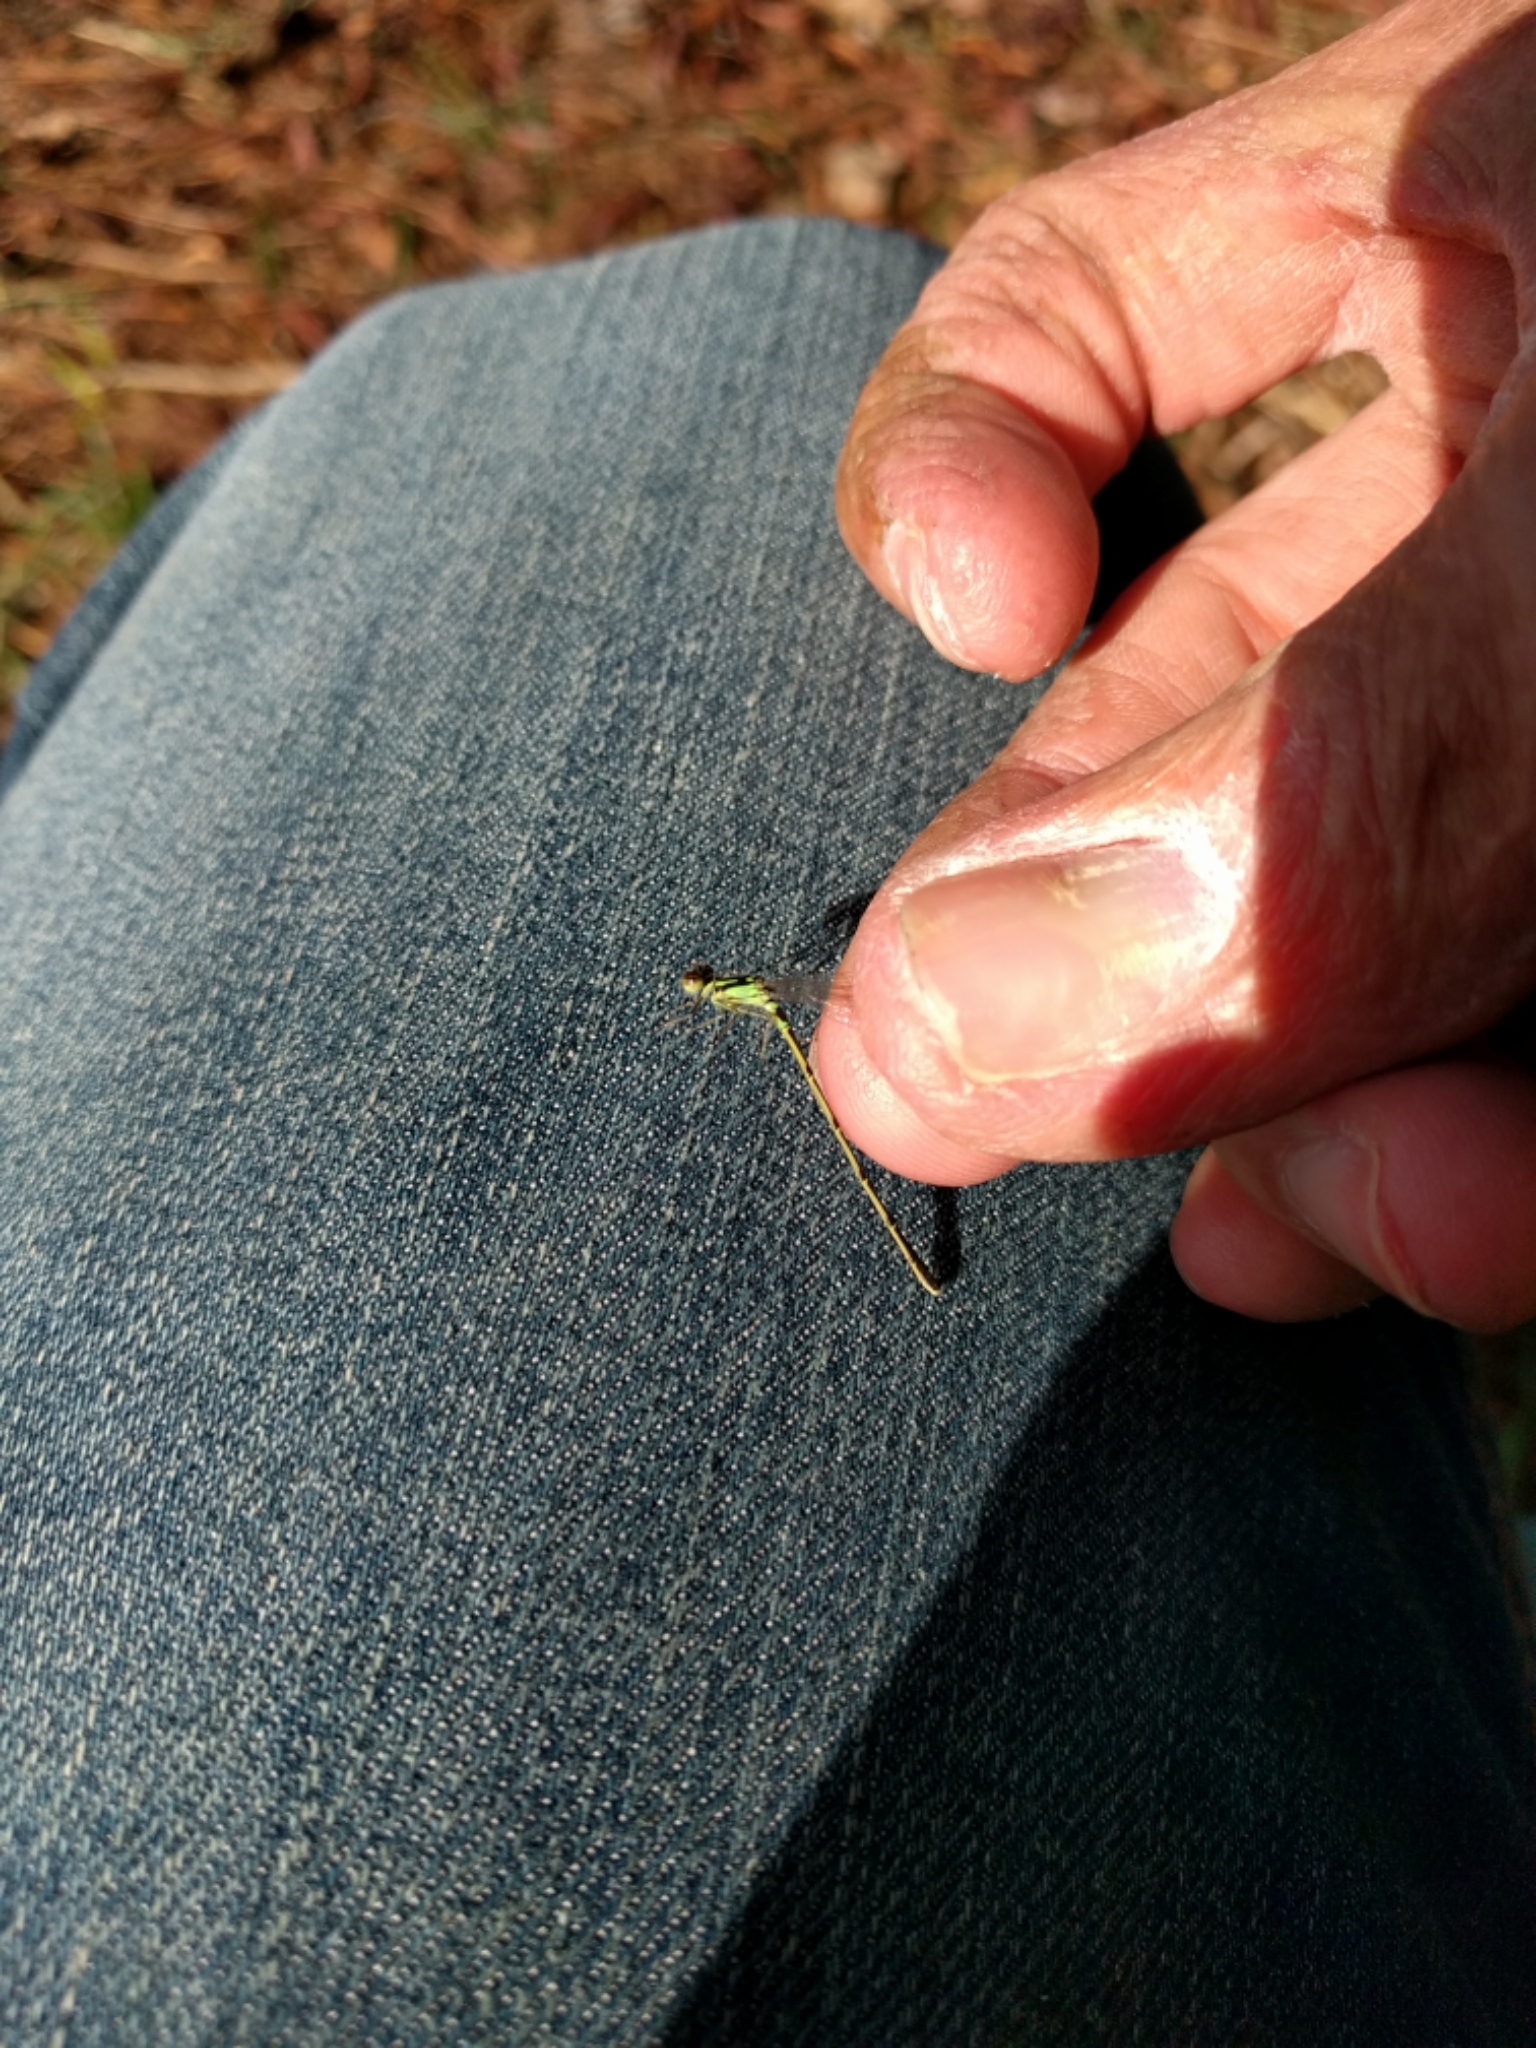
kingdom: Animalia
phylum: Arthropoda
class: Insecta
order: Odonata
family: Coenagrionidae
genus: Ischnura
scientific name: Ischnura posita
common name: Fragile forktail
